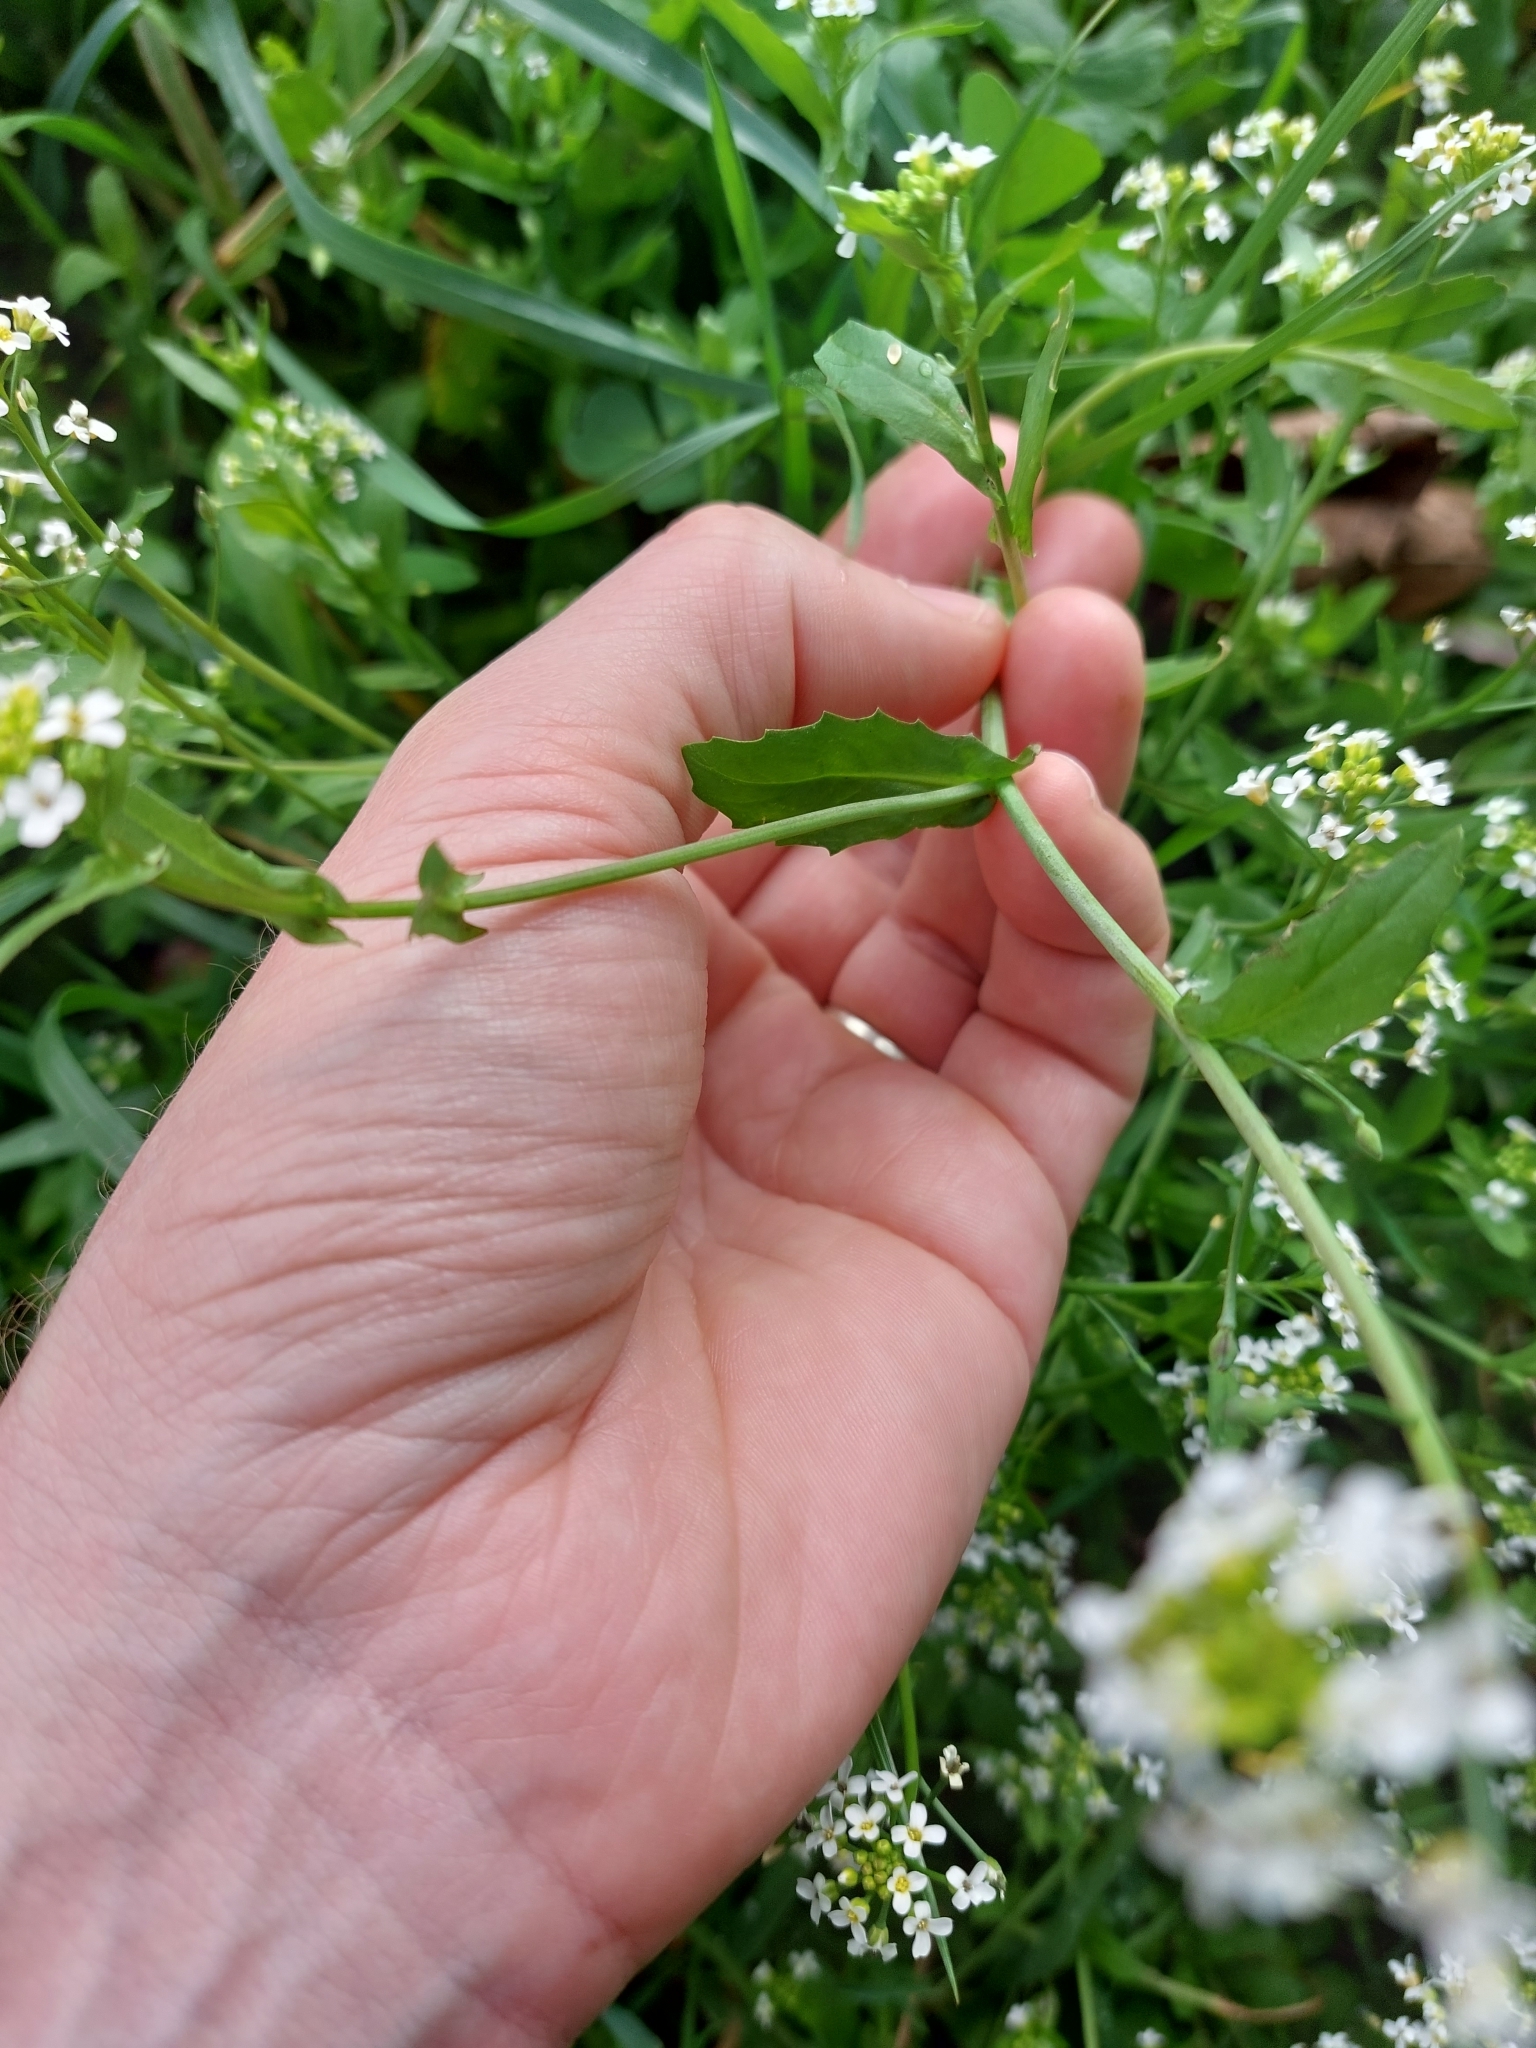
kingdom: Plantae
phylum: Tracheophyta
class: Magnoliopsida
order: Brassicales
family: Brassicaceae
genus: Calepina
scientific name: Calepina irregularis
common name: White ballmustard
